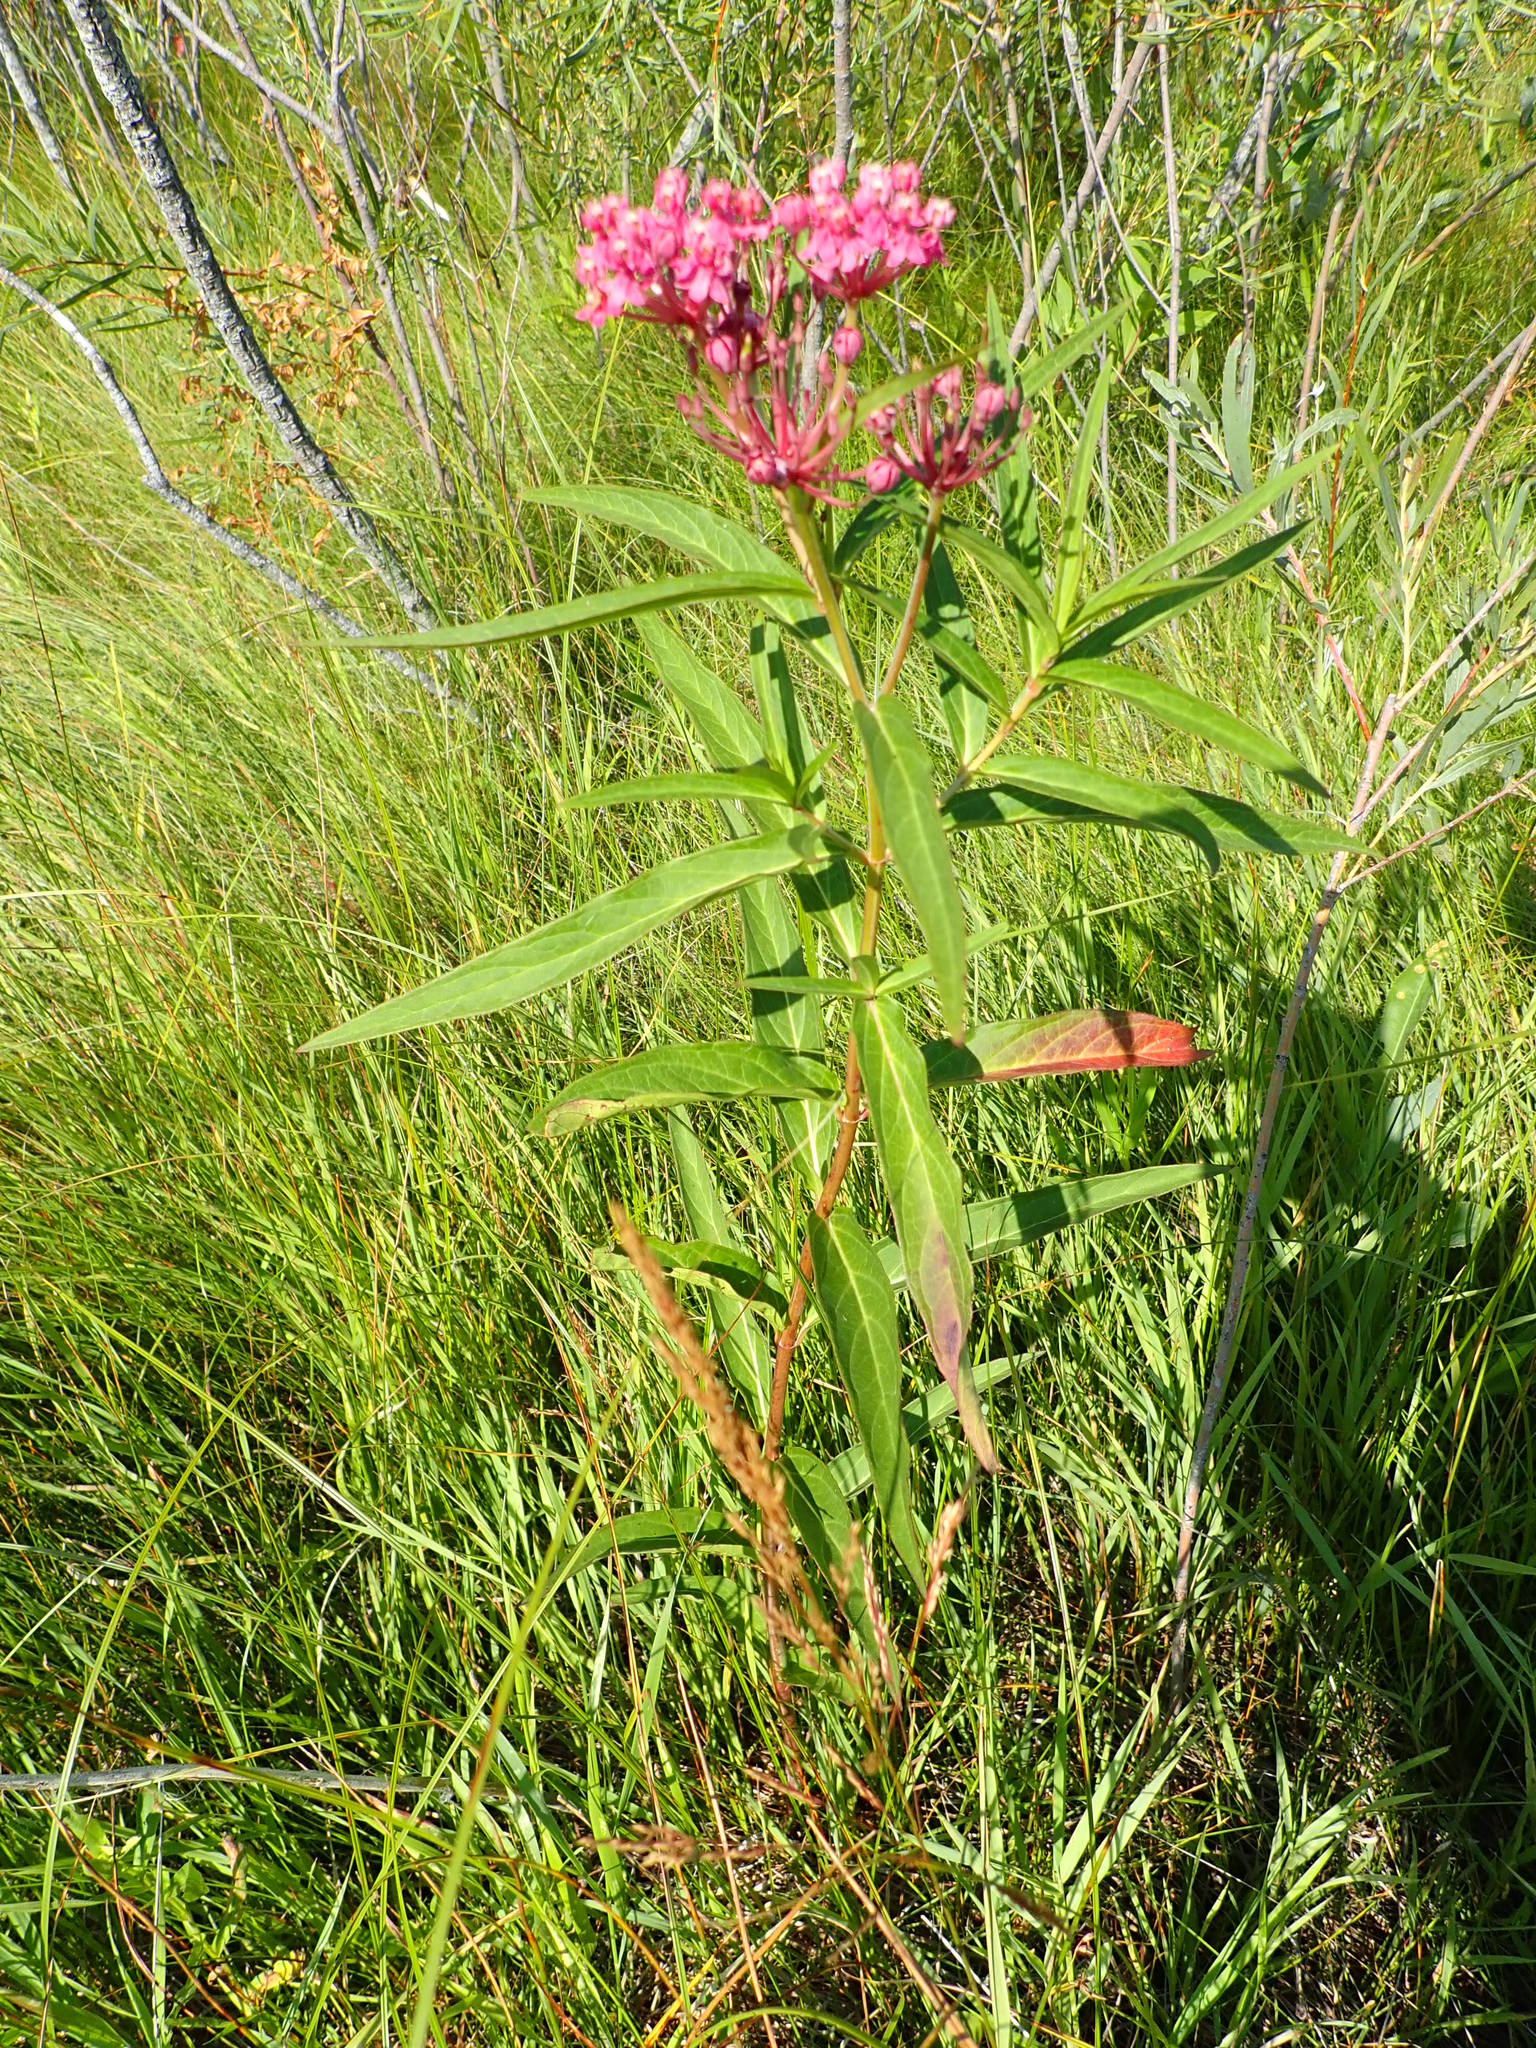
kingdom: Plantae
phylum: Tracheophyta
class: Magnoliopsida
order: Gentianales
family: Apocynaceae
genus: Asclepias
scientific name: Asclepias incarnata
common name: Swamp milkweed
